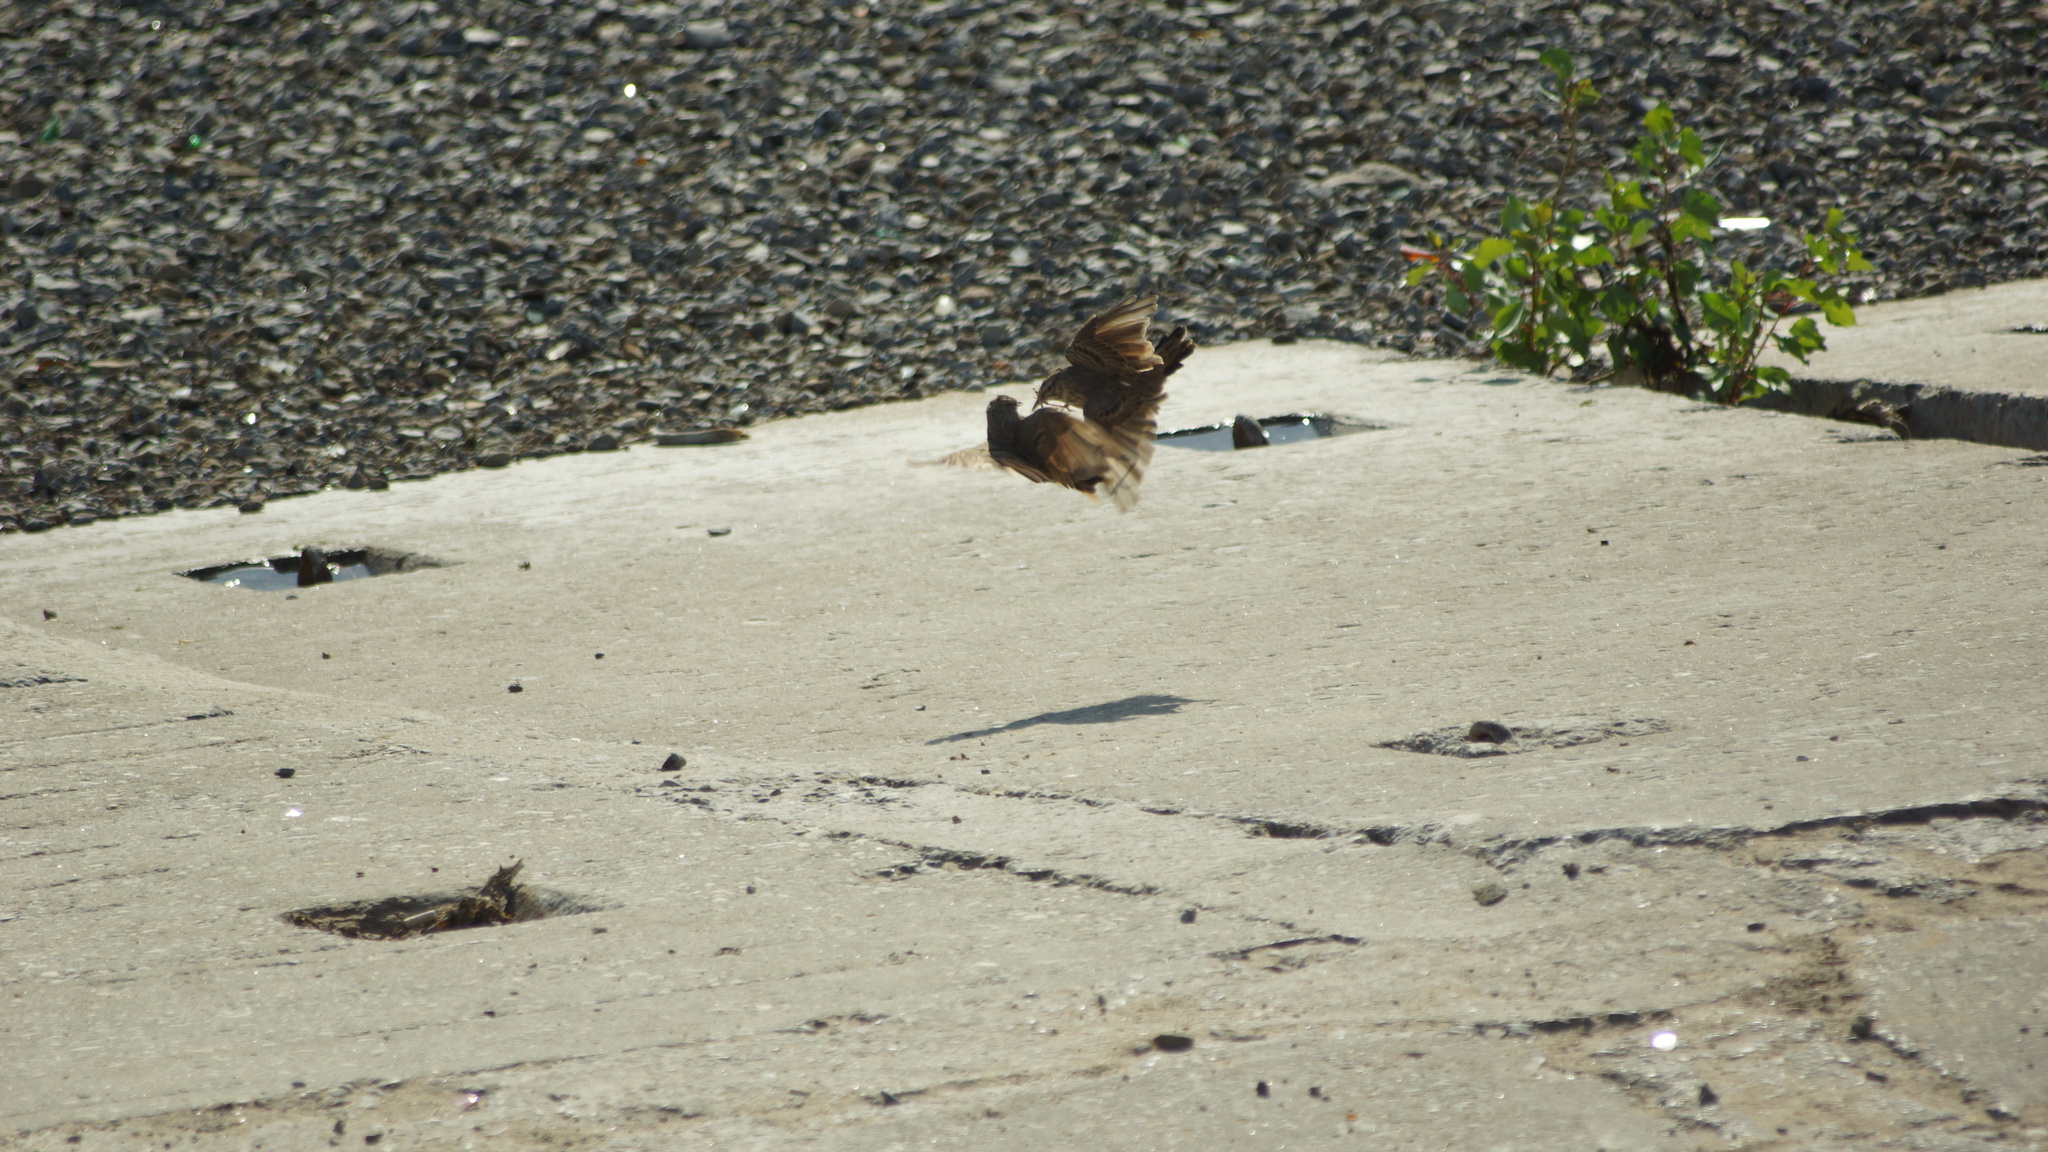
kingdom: Animalia
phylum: Chordata
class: Aves
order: Passeriformes
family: Alaudidae
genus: Galerida
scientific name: Galerida cristata
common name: Crested lark
